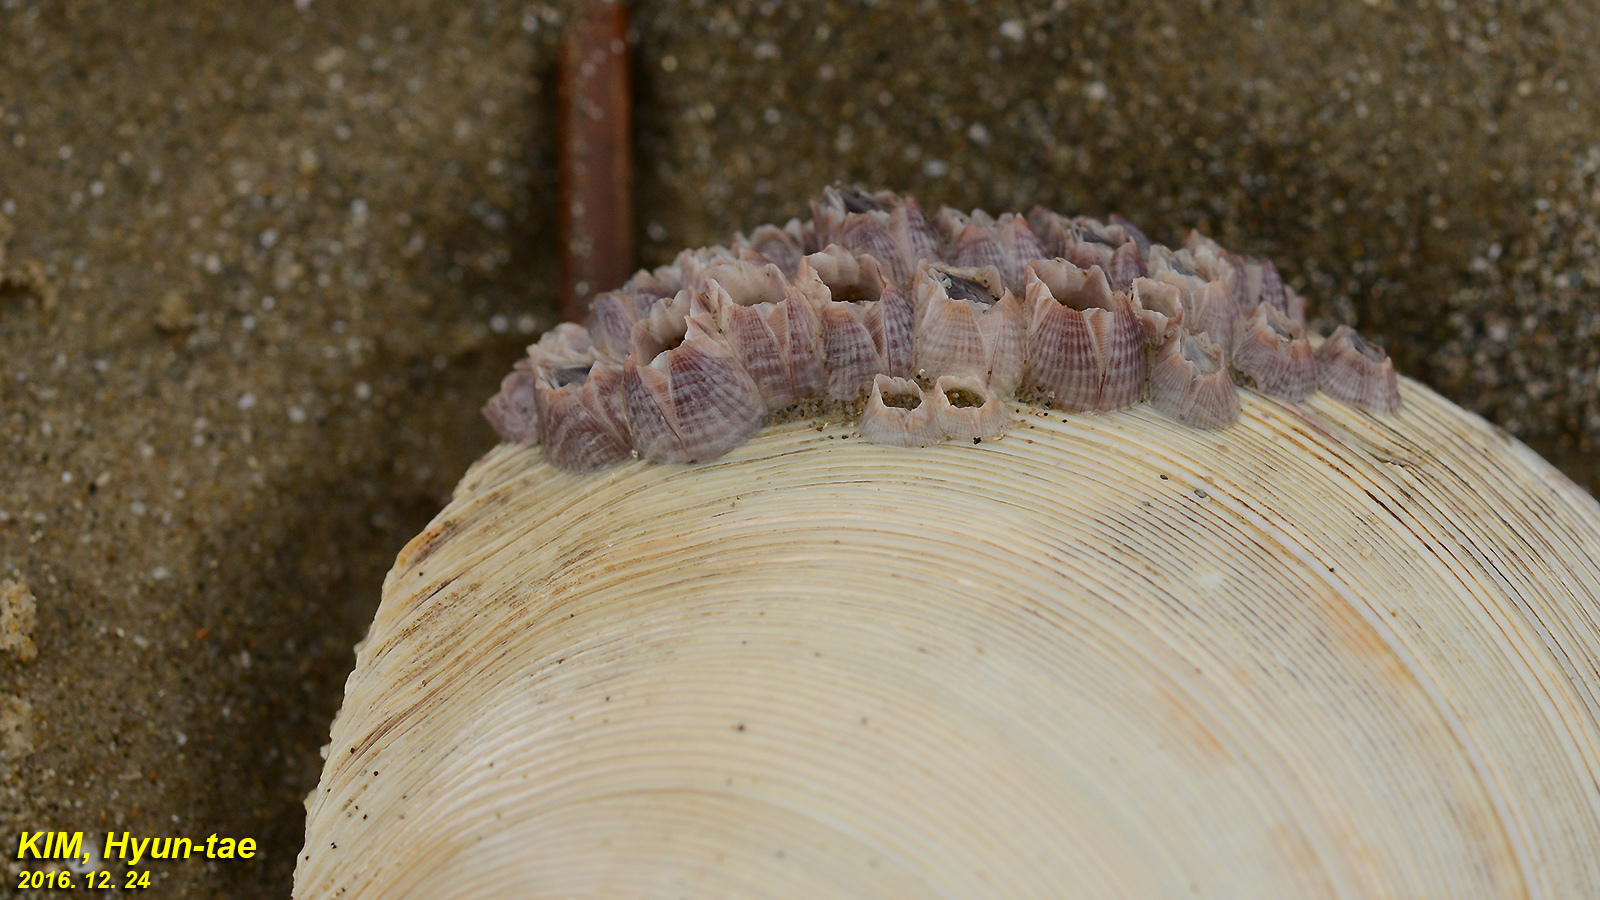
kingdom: Animalia
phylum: Arthropoda
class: Maxillopoda
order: Sessilia
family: Balanidae
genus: Amphibalanus
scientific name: Amphibalanus reticulatus
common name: Reticulated barnacle
